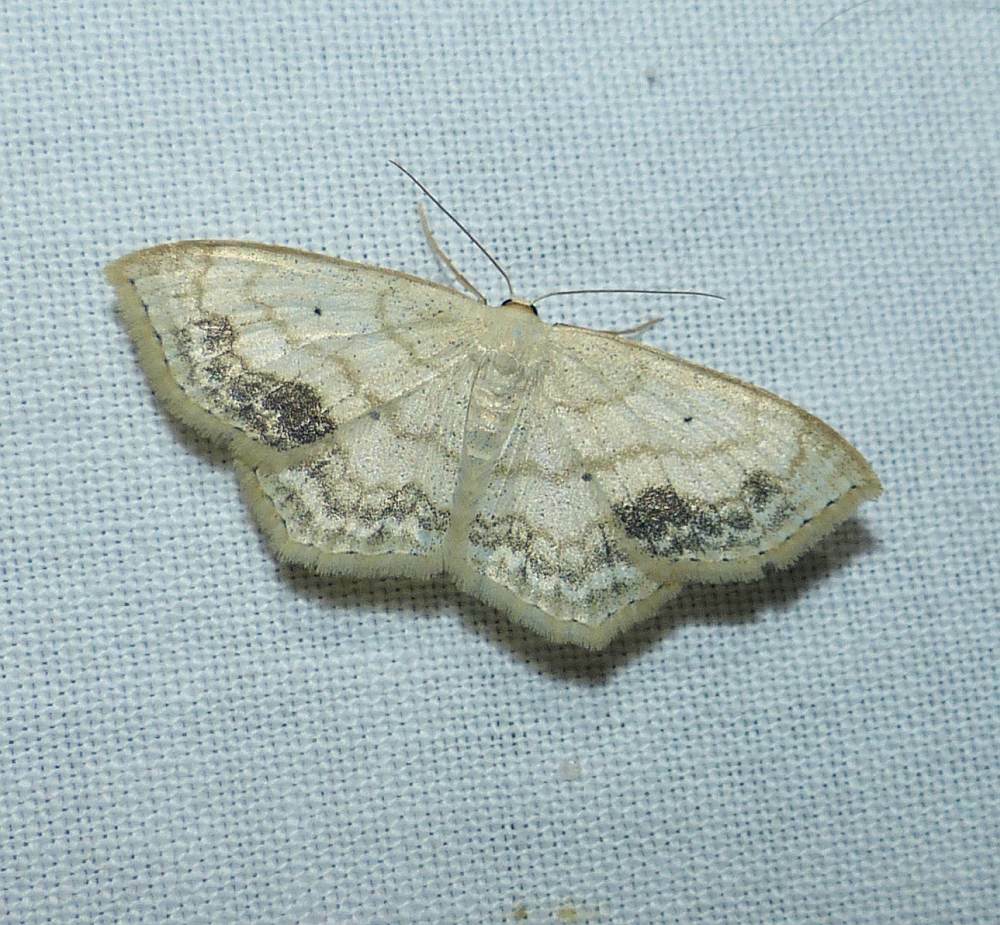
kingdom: Animalia
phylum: Arthropoda
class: Insecta
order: Lepidoptera
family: Geometridae
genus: Scopula
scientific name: Scopula limboundata
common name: Large lace border
